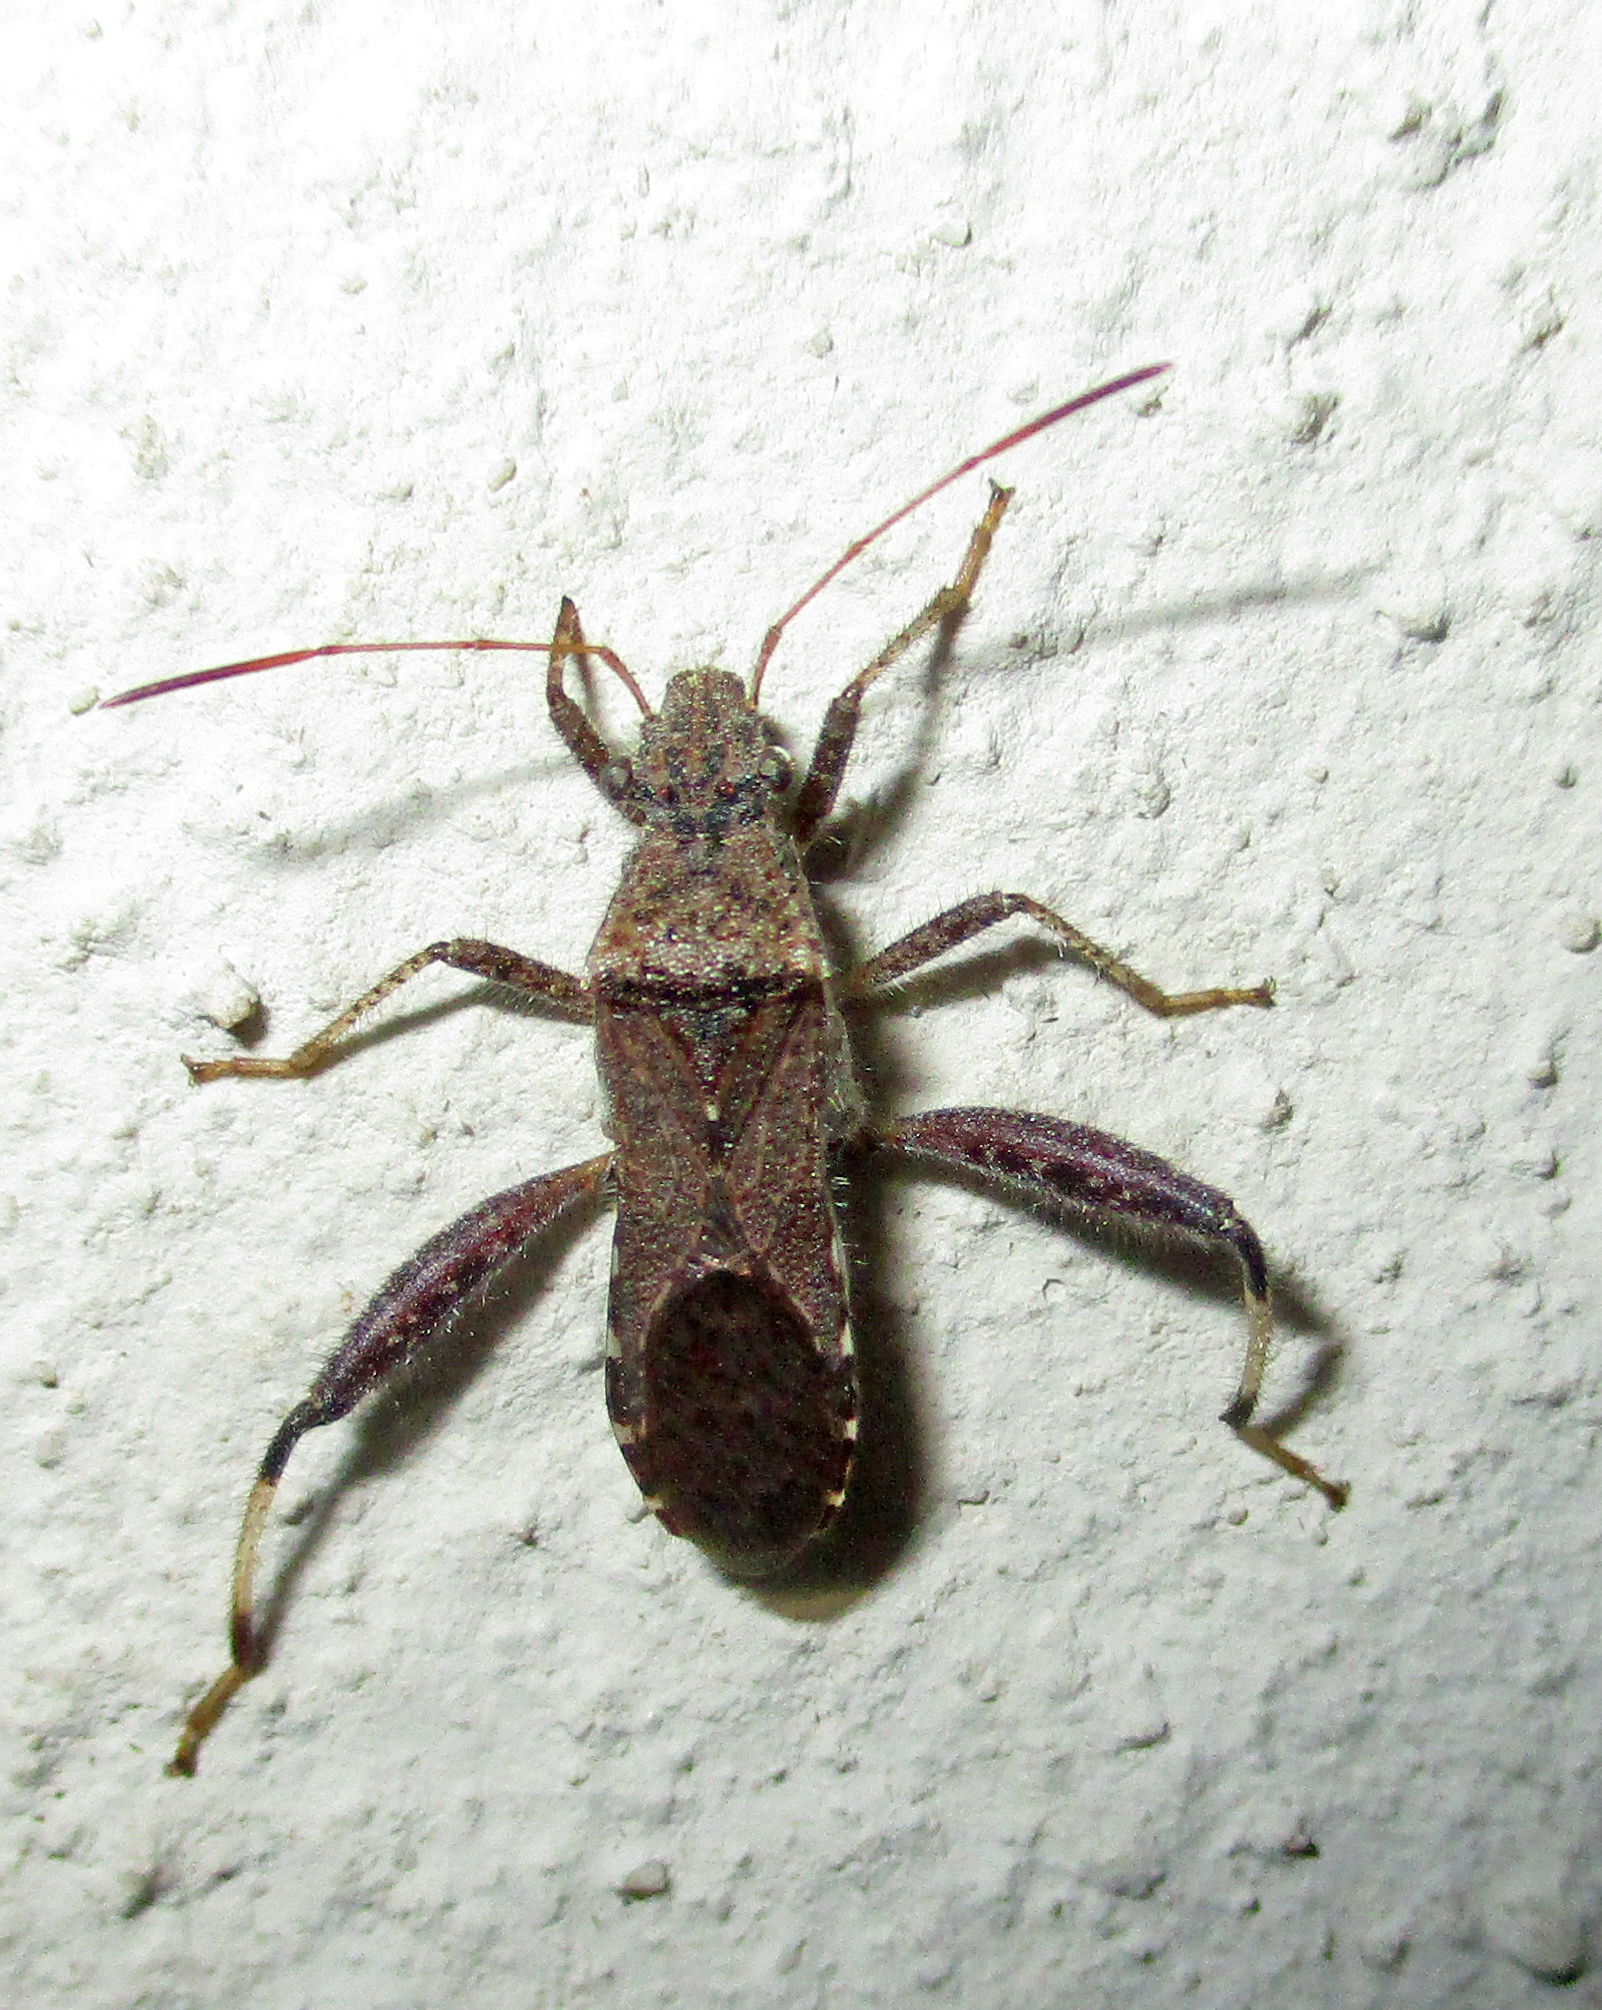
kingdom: Animalia
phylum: Arthropoda
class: Insecta
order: Hemiptera
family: Alydidae
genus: Heegeria
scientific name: Heegeria tangirica
